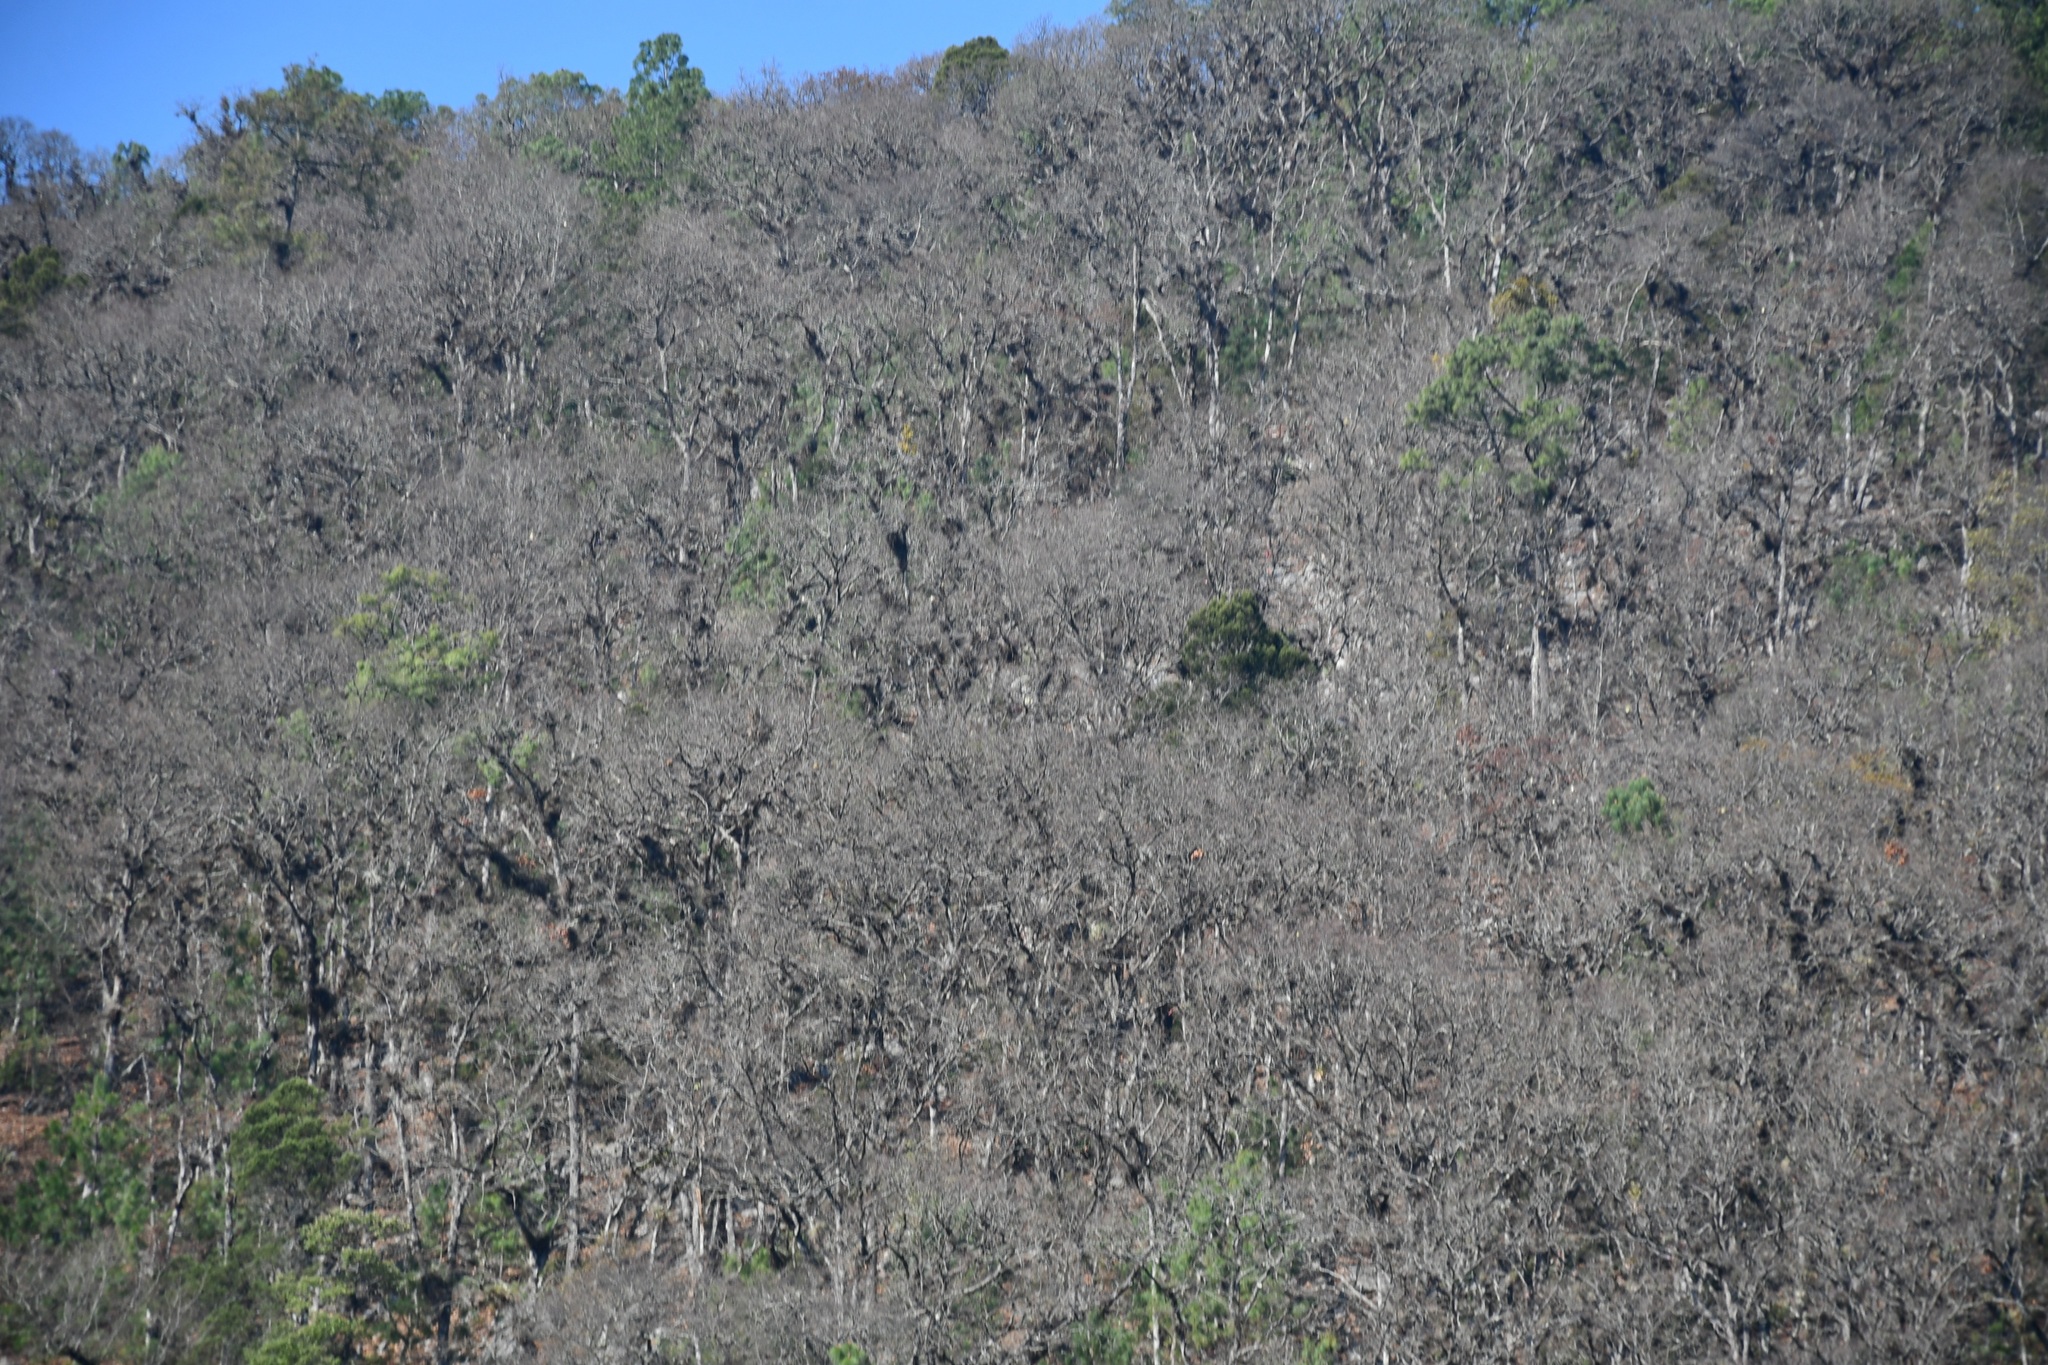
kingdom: Plantae
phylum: Tracheophyta
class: Magnoliopsida
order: Fagales
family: Fagaceae
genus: Quercus
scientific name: Quercus segoviensis
